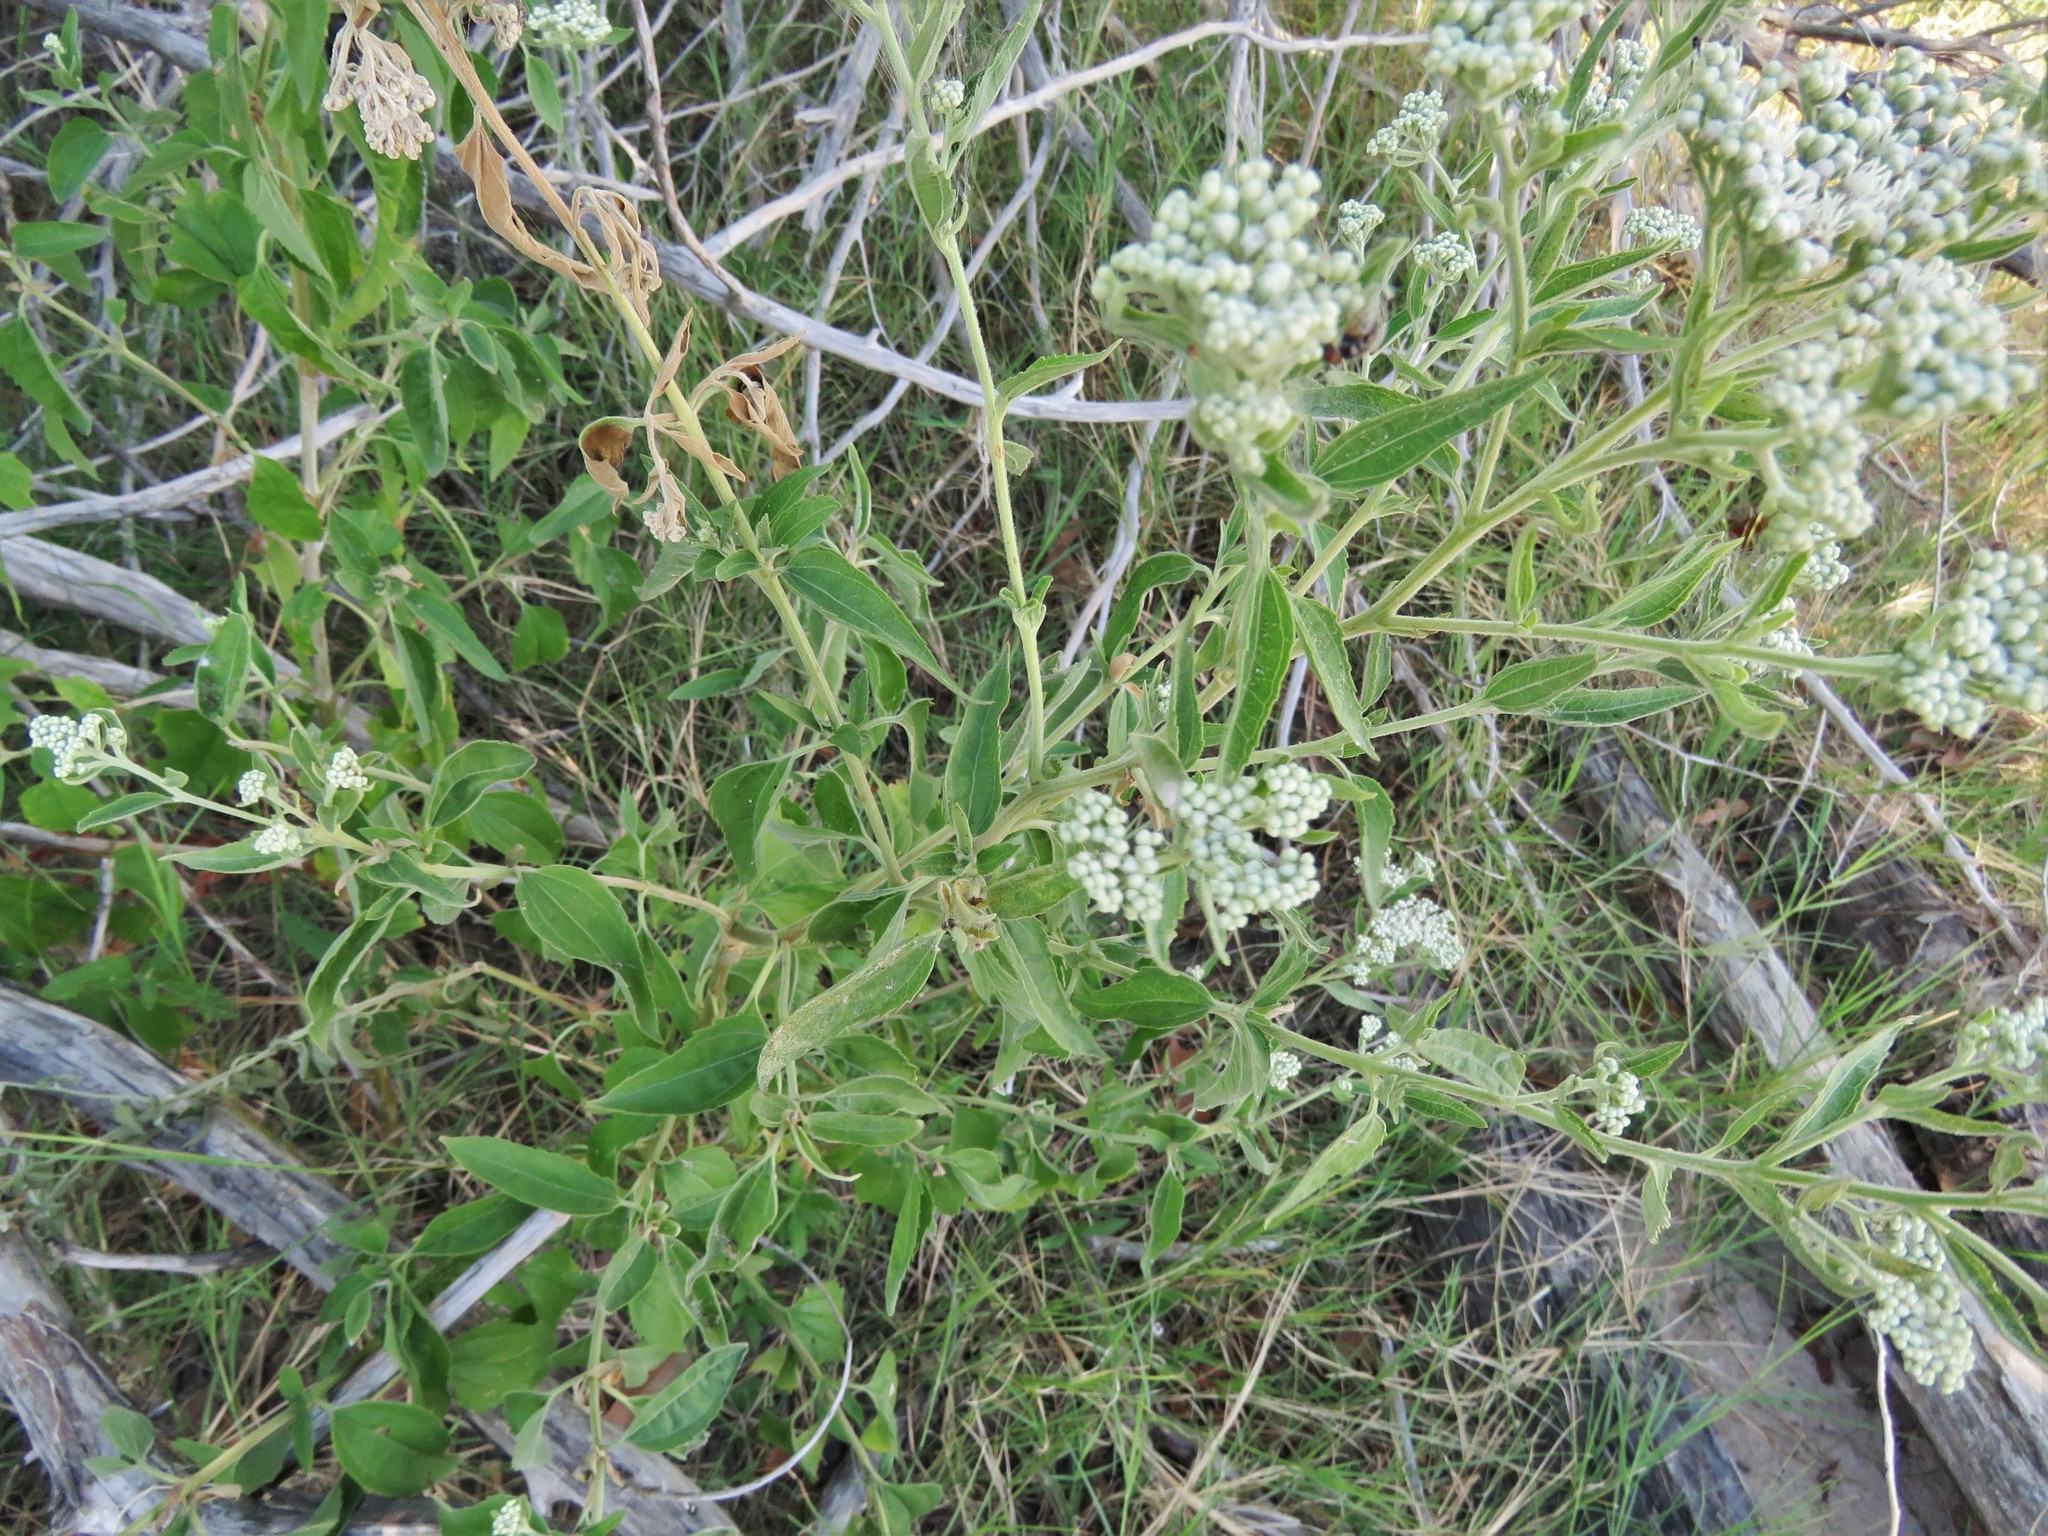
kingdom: Plantae
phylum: Tracheophyta
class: Magnoliopsida
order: Asterales
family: Asteraceae
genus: Eupatorium
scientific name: Eupatorium serotinum
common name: Late boneset
